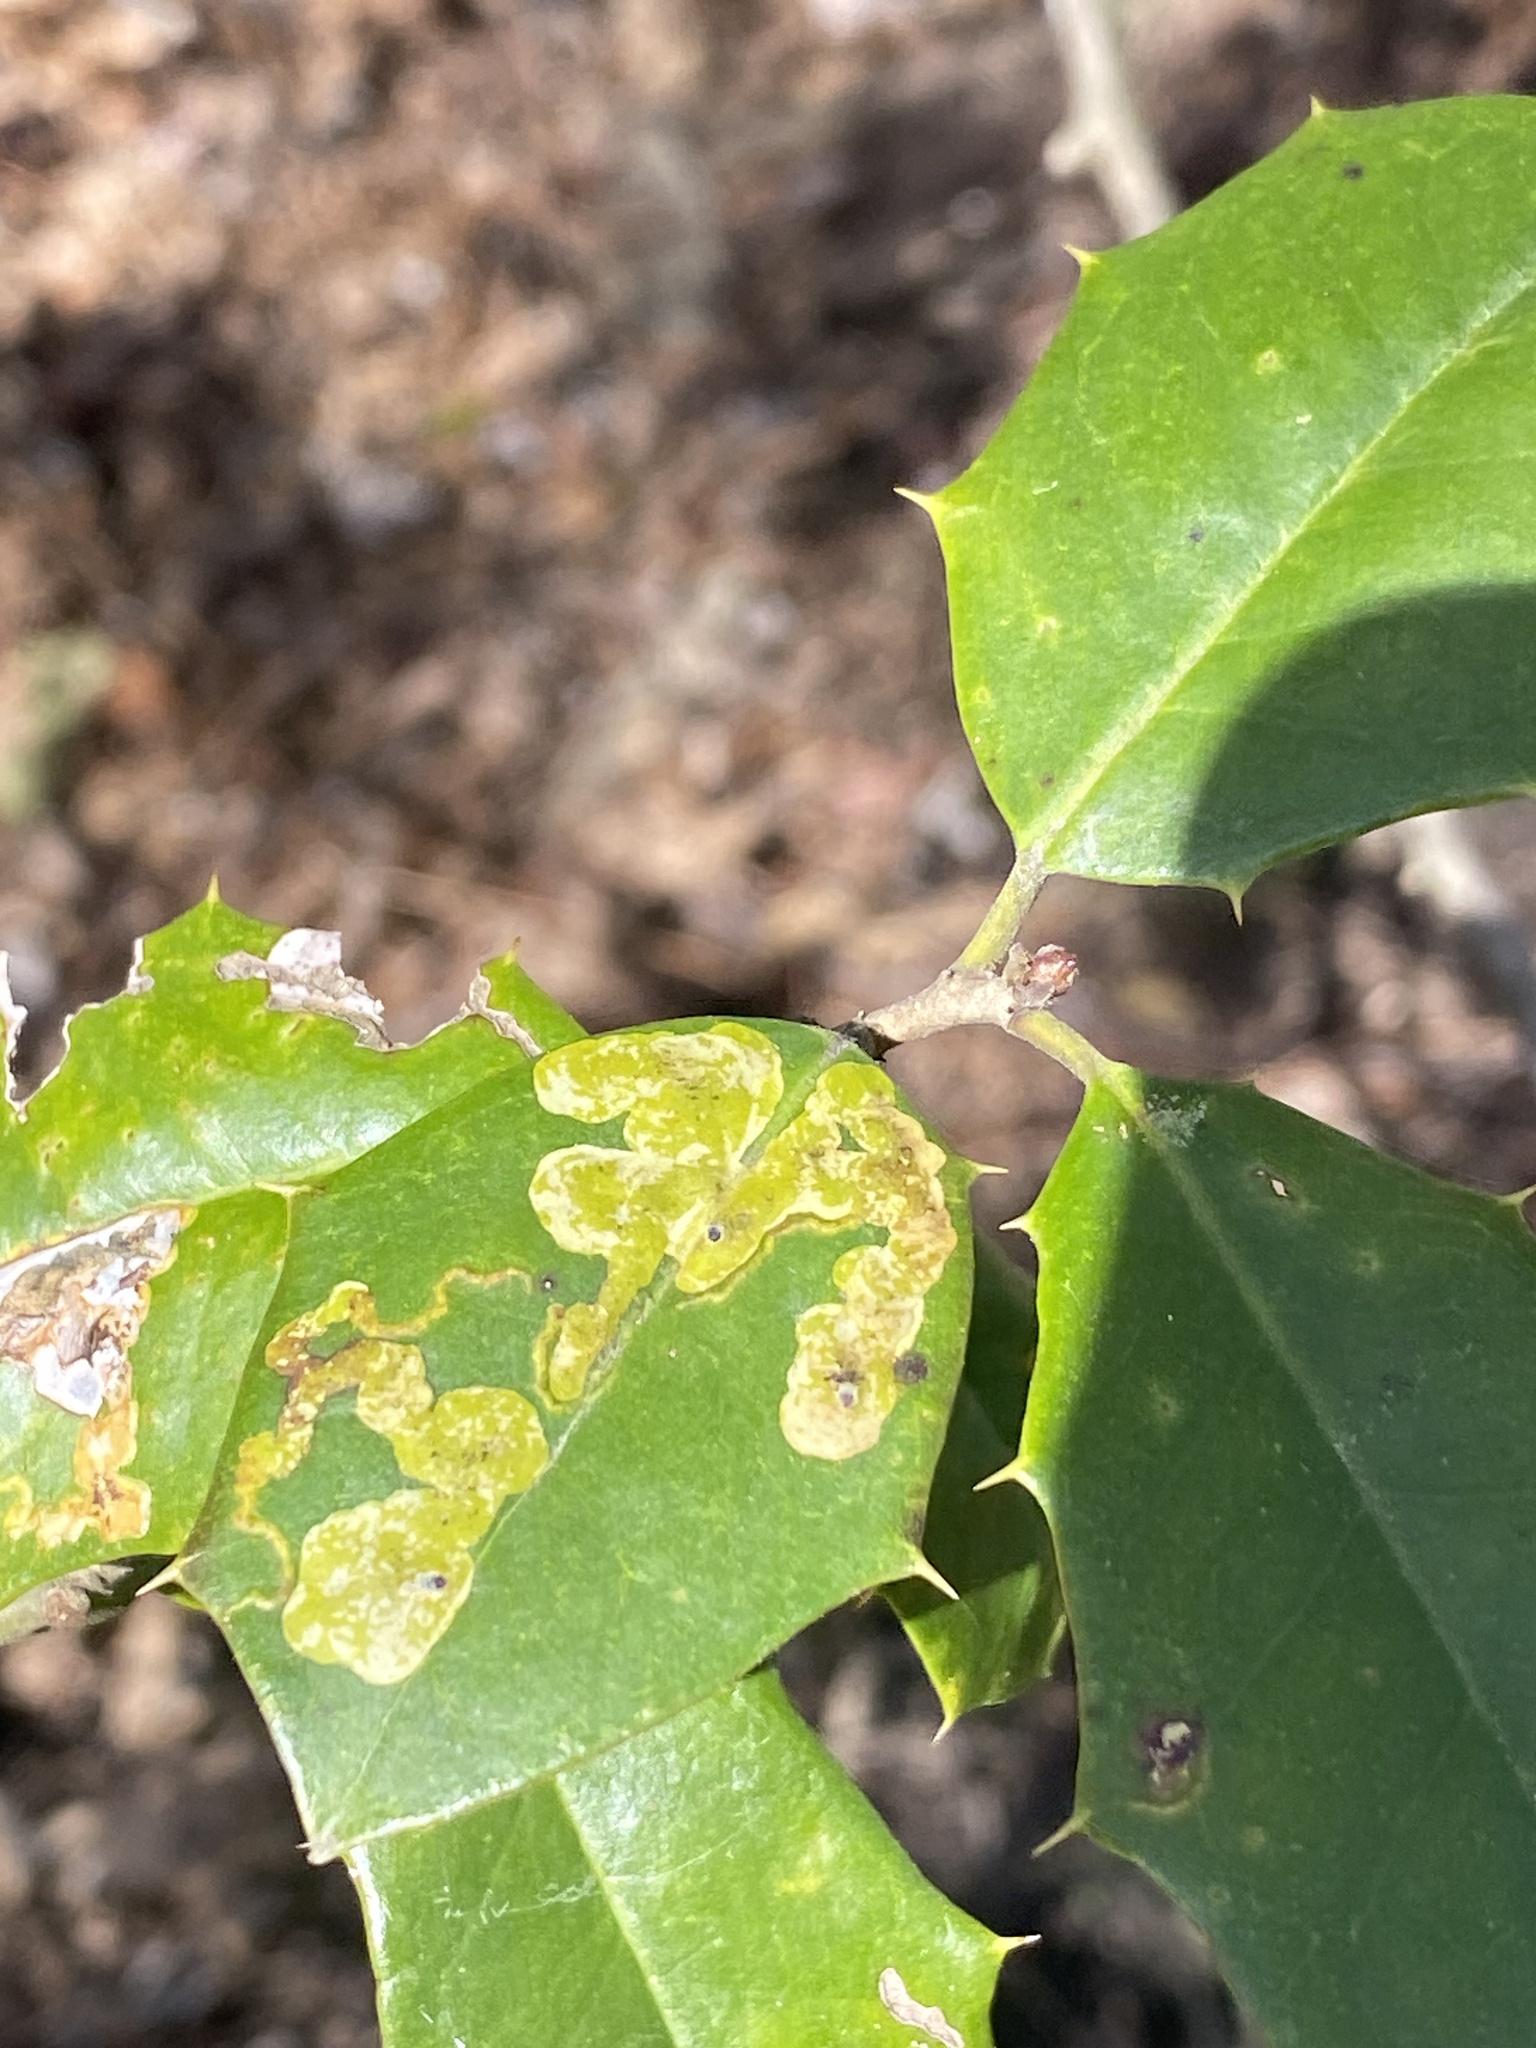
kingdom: Animalia
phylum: Arthropoda
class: Insecta
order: Diptera
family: Agromyzidae
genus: Phytomyza
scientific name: Phytomyza ilicicola
